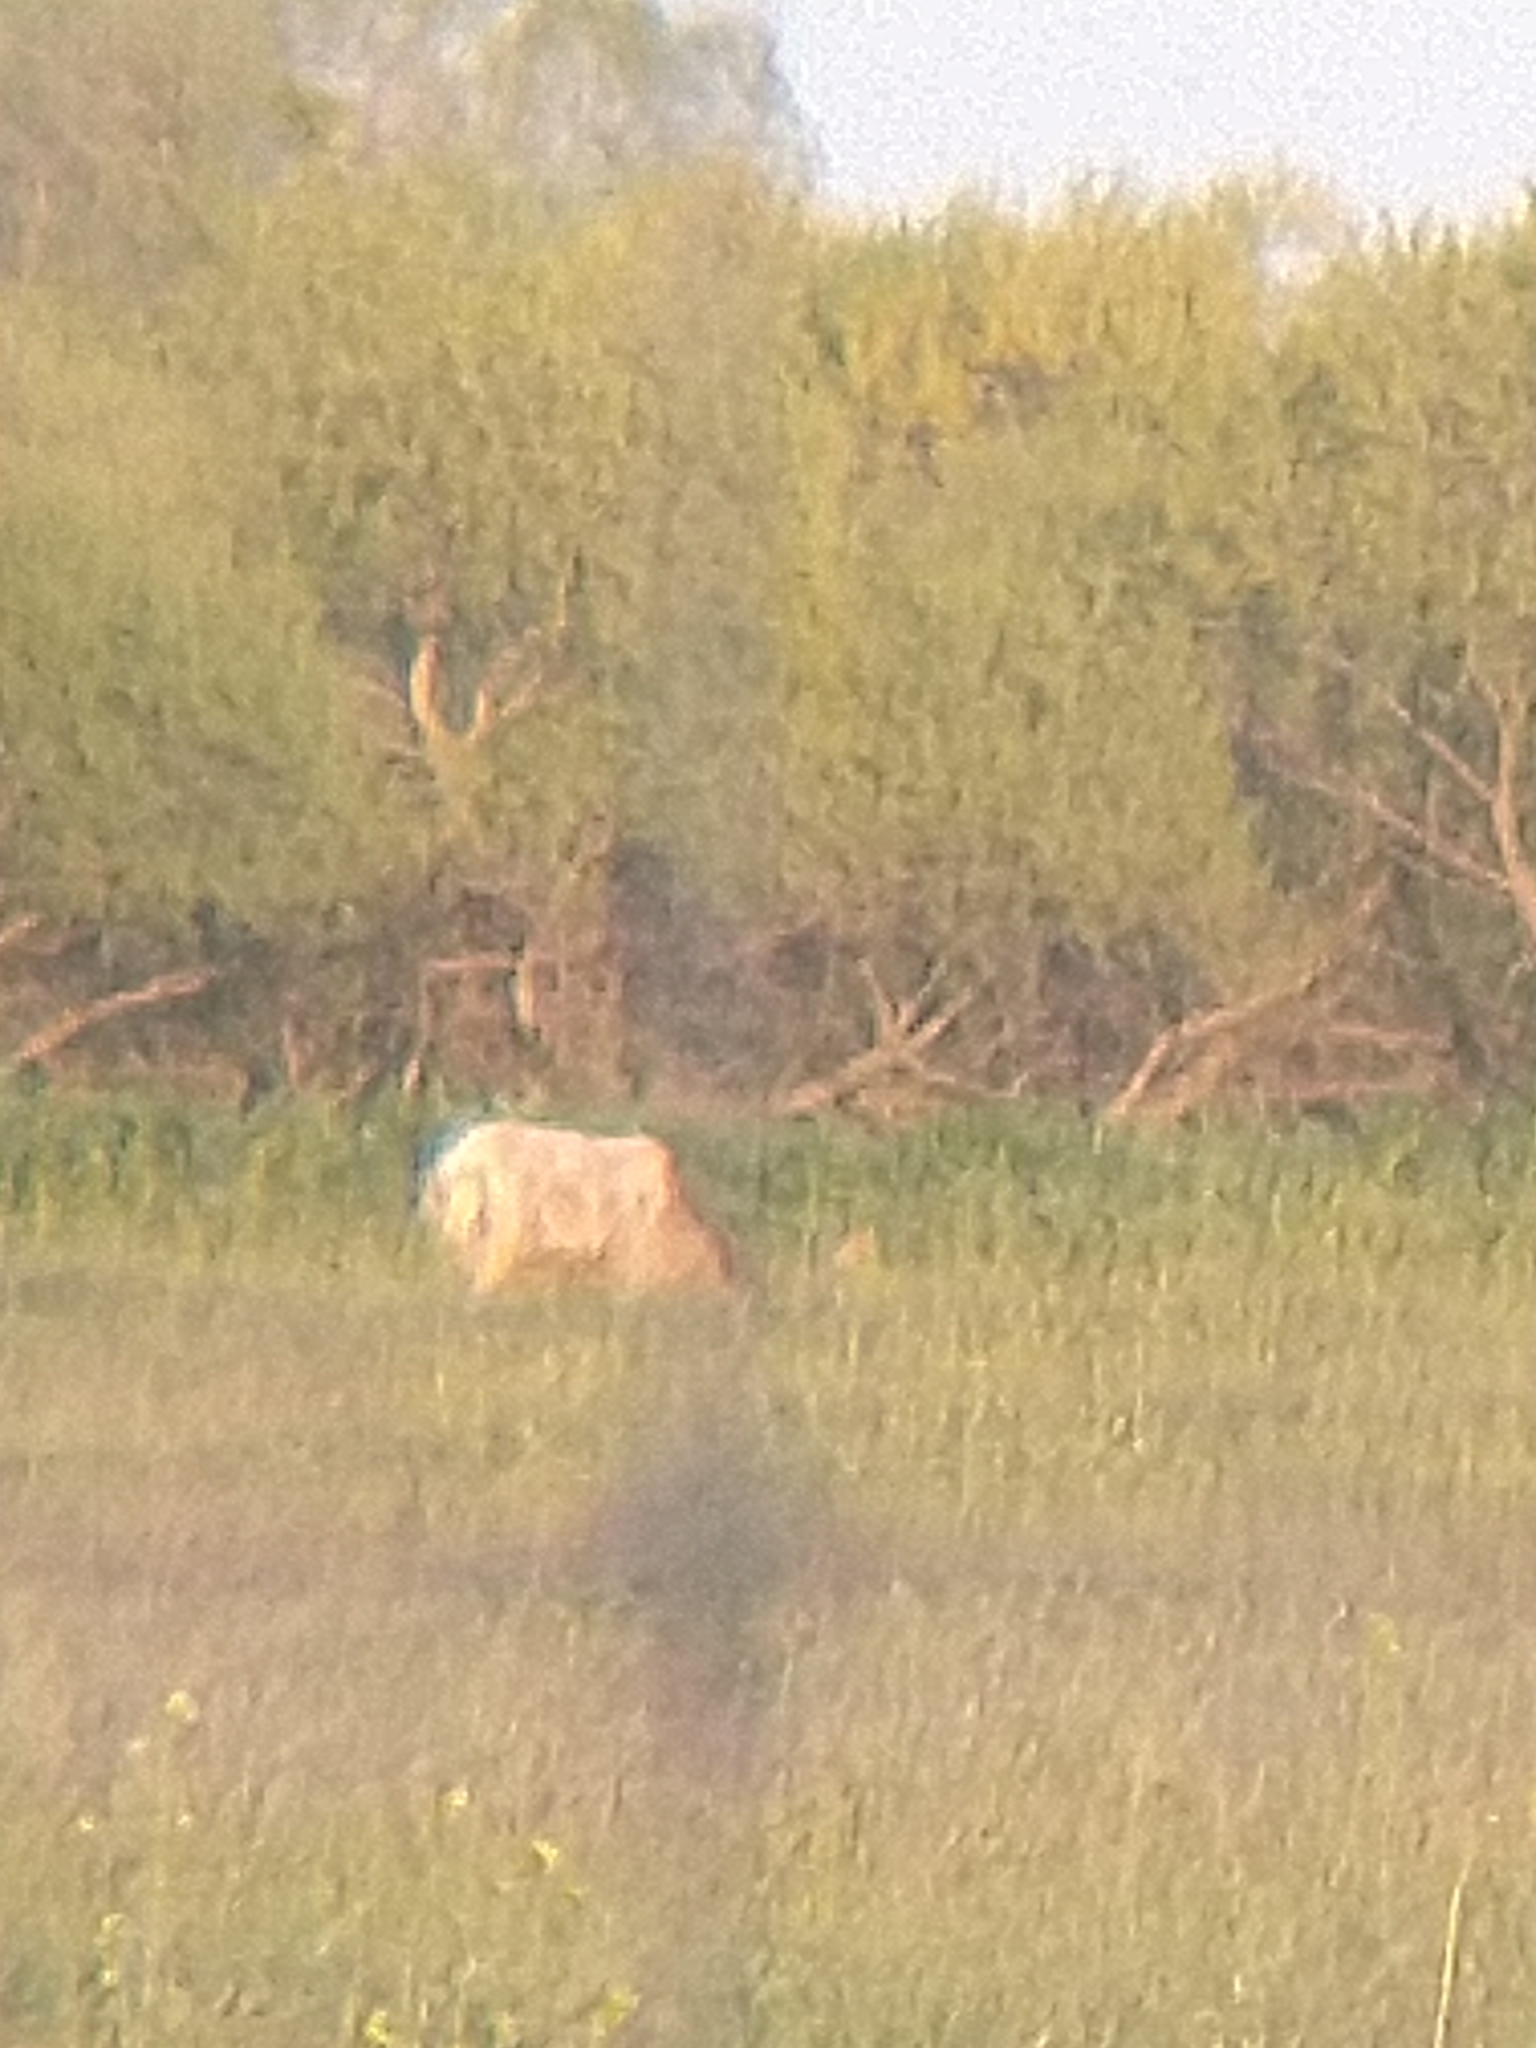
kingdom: Animalia
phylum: Chordata
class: Mammalia
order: Artiodactyla
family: Cervidae
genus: Cervus
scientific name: Cervus elaphus
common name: Red deer
